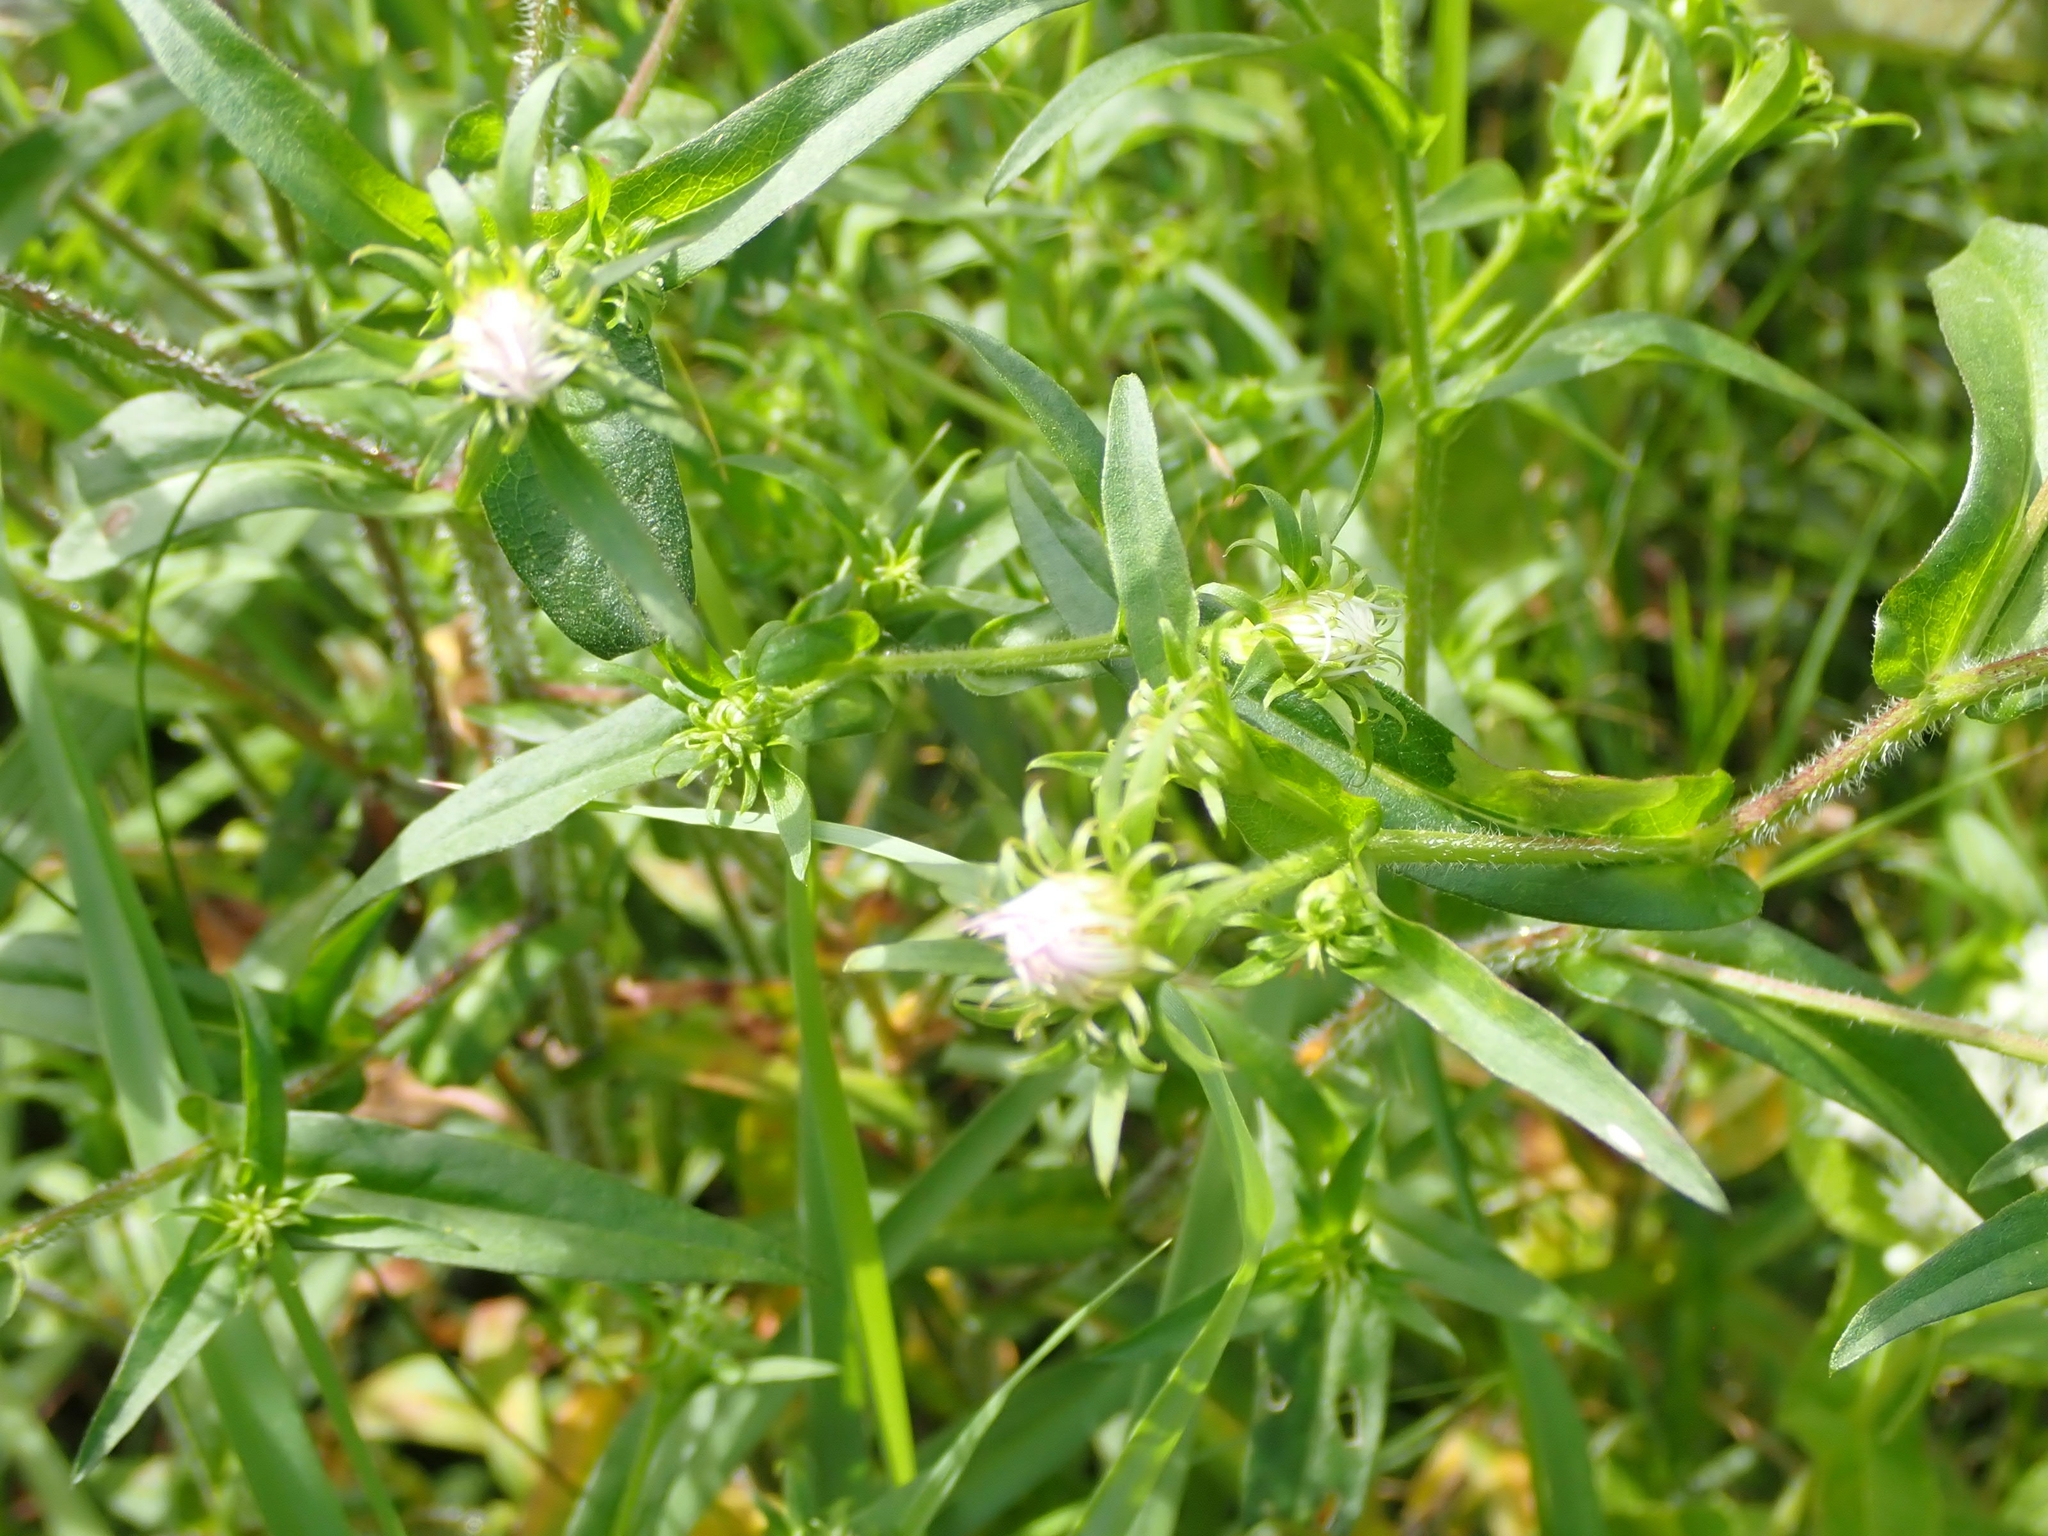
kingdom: Plantae
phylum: Tracheophyta
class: Magnoliopsida
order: Asterales
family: Asteraceae
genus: Symphyotrichum
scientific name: Symphyotrichum puniceum
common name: Bog aster
